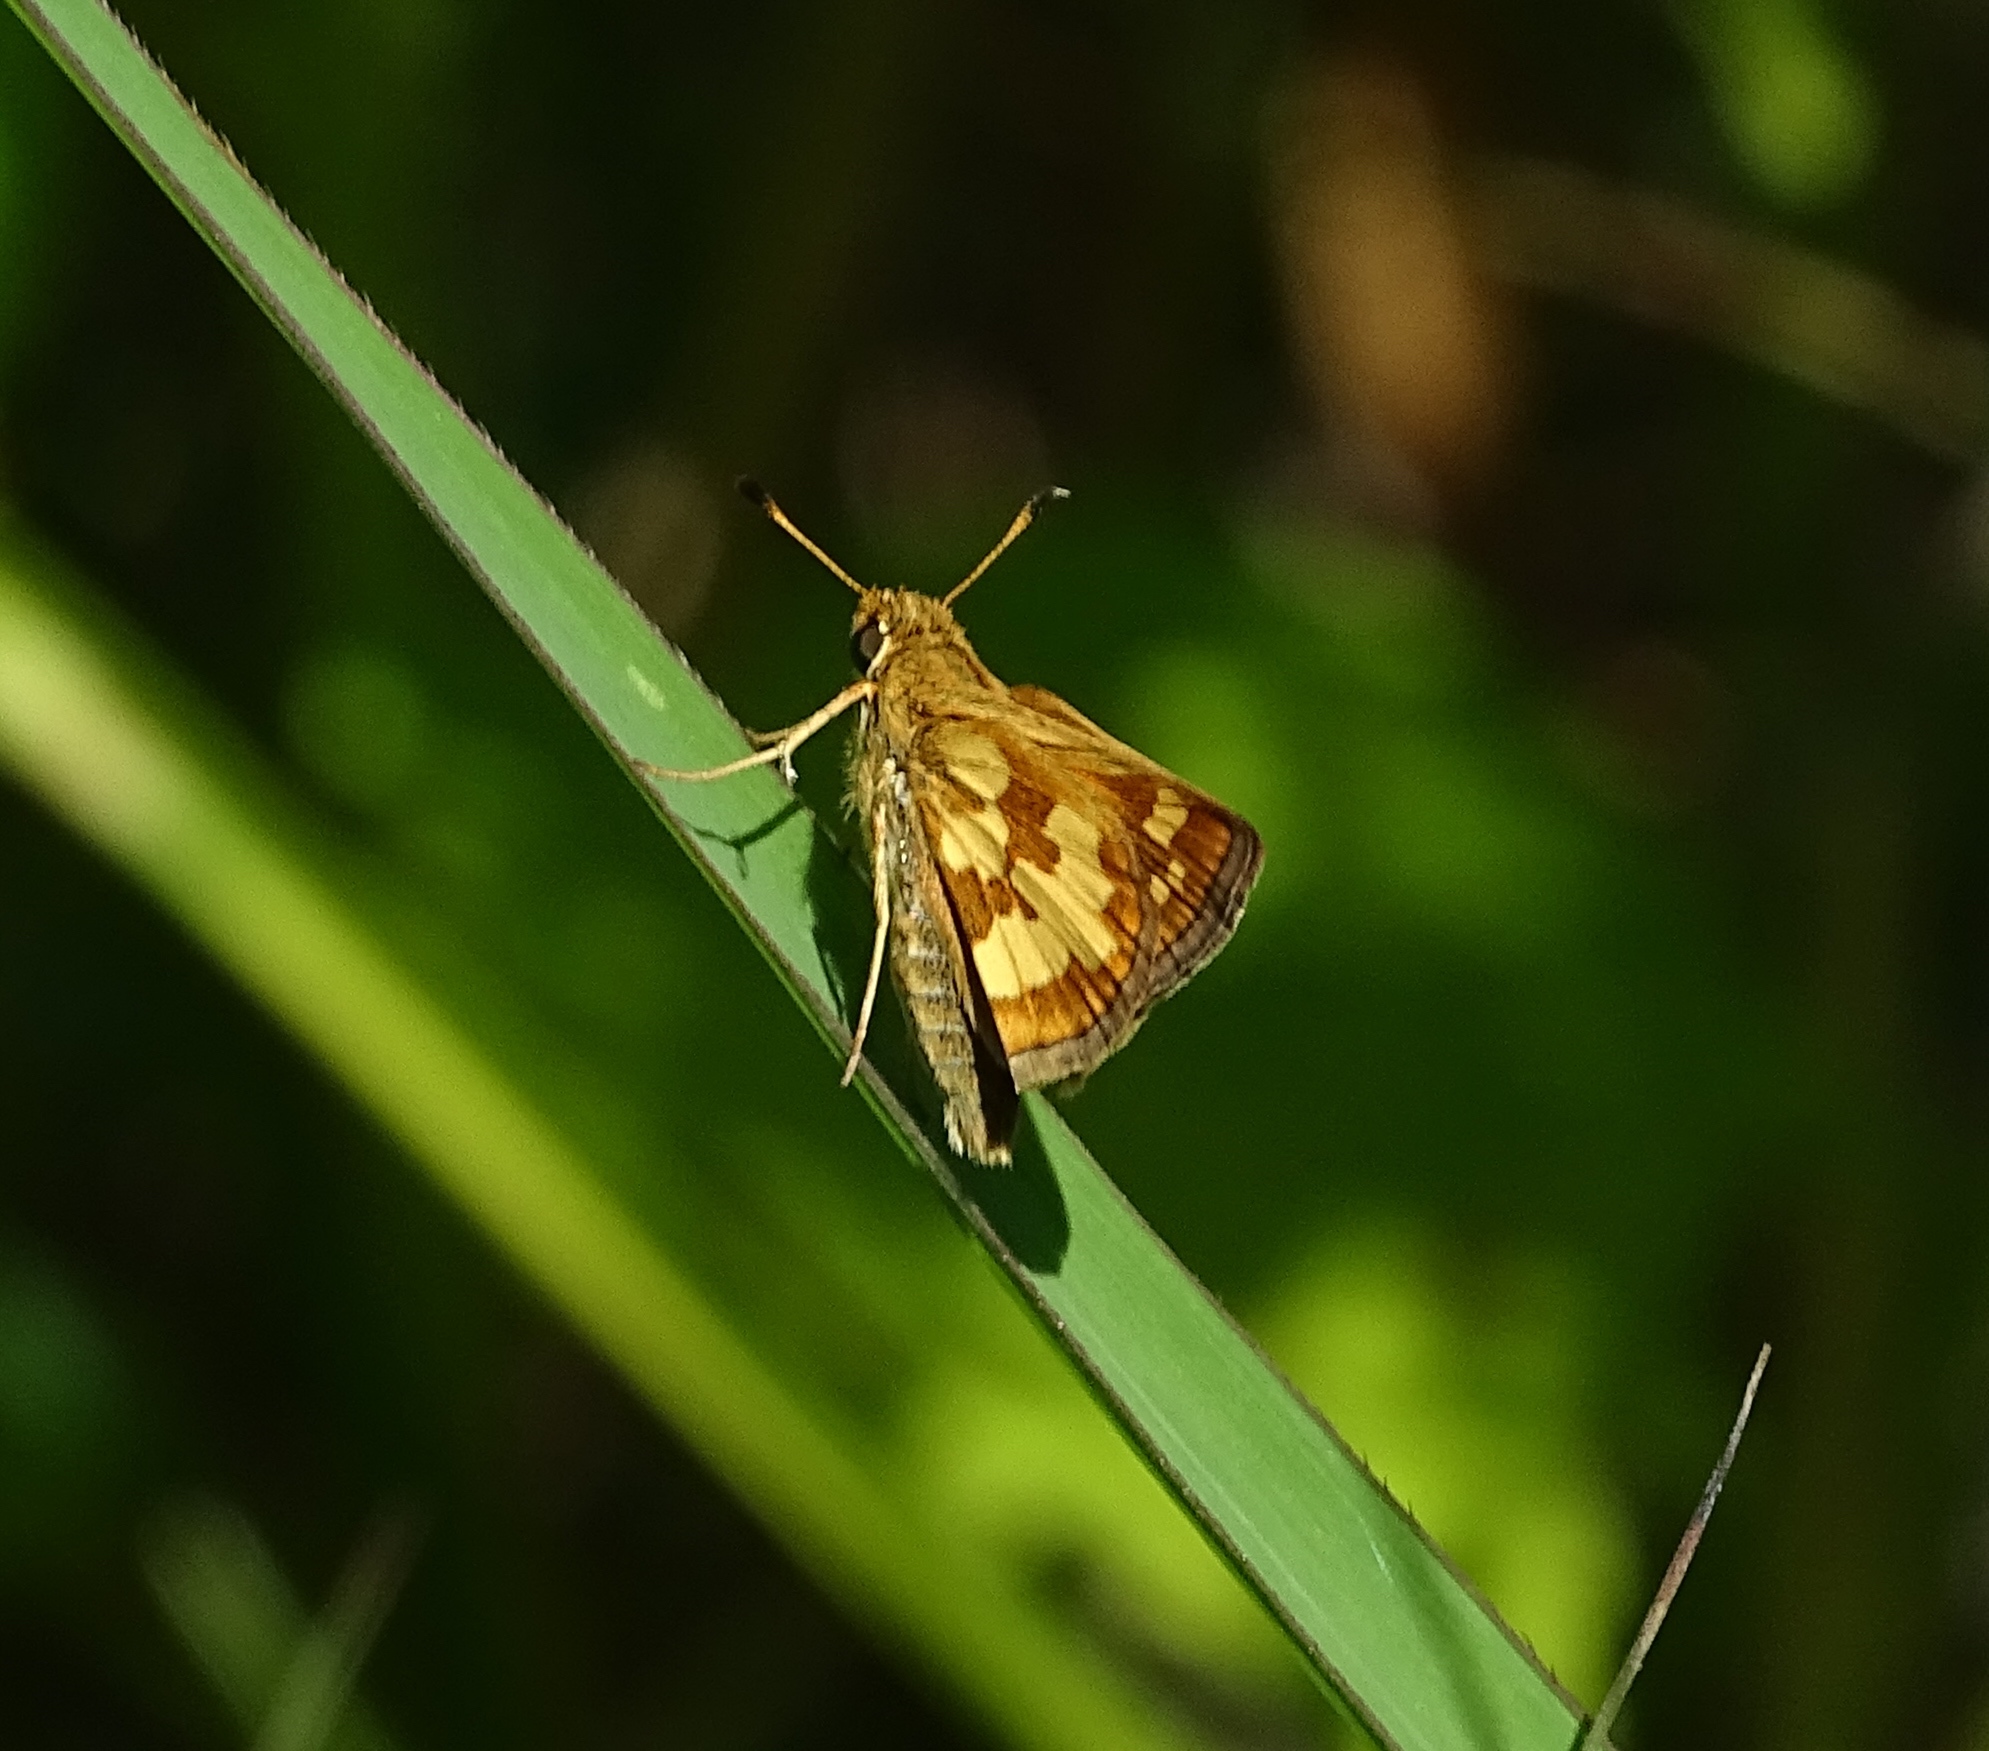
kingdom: Animalia
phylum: Arthropoda
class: Insecta
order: Lepidoptera
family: Hesperiidae
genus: Polites
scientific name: Polites coras
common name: Peck's skipper
